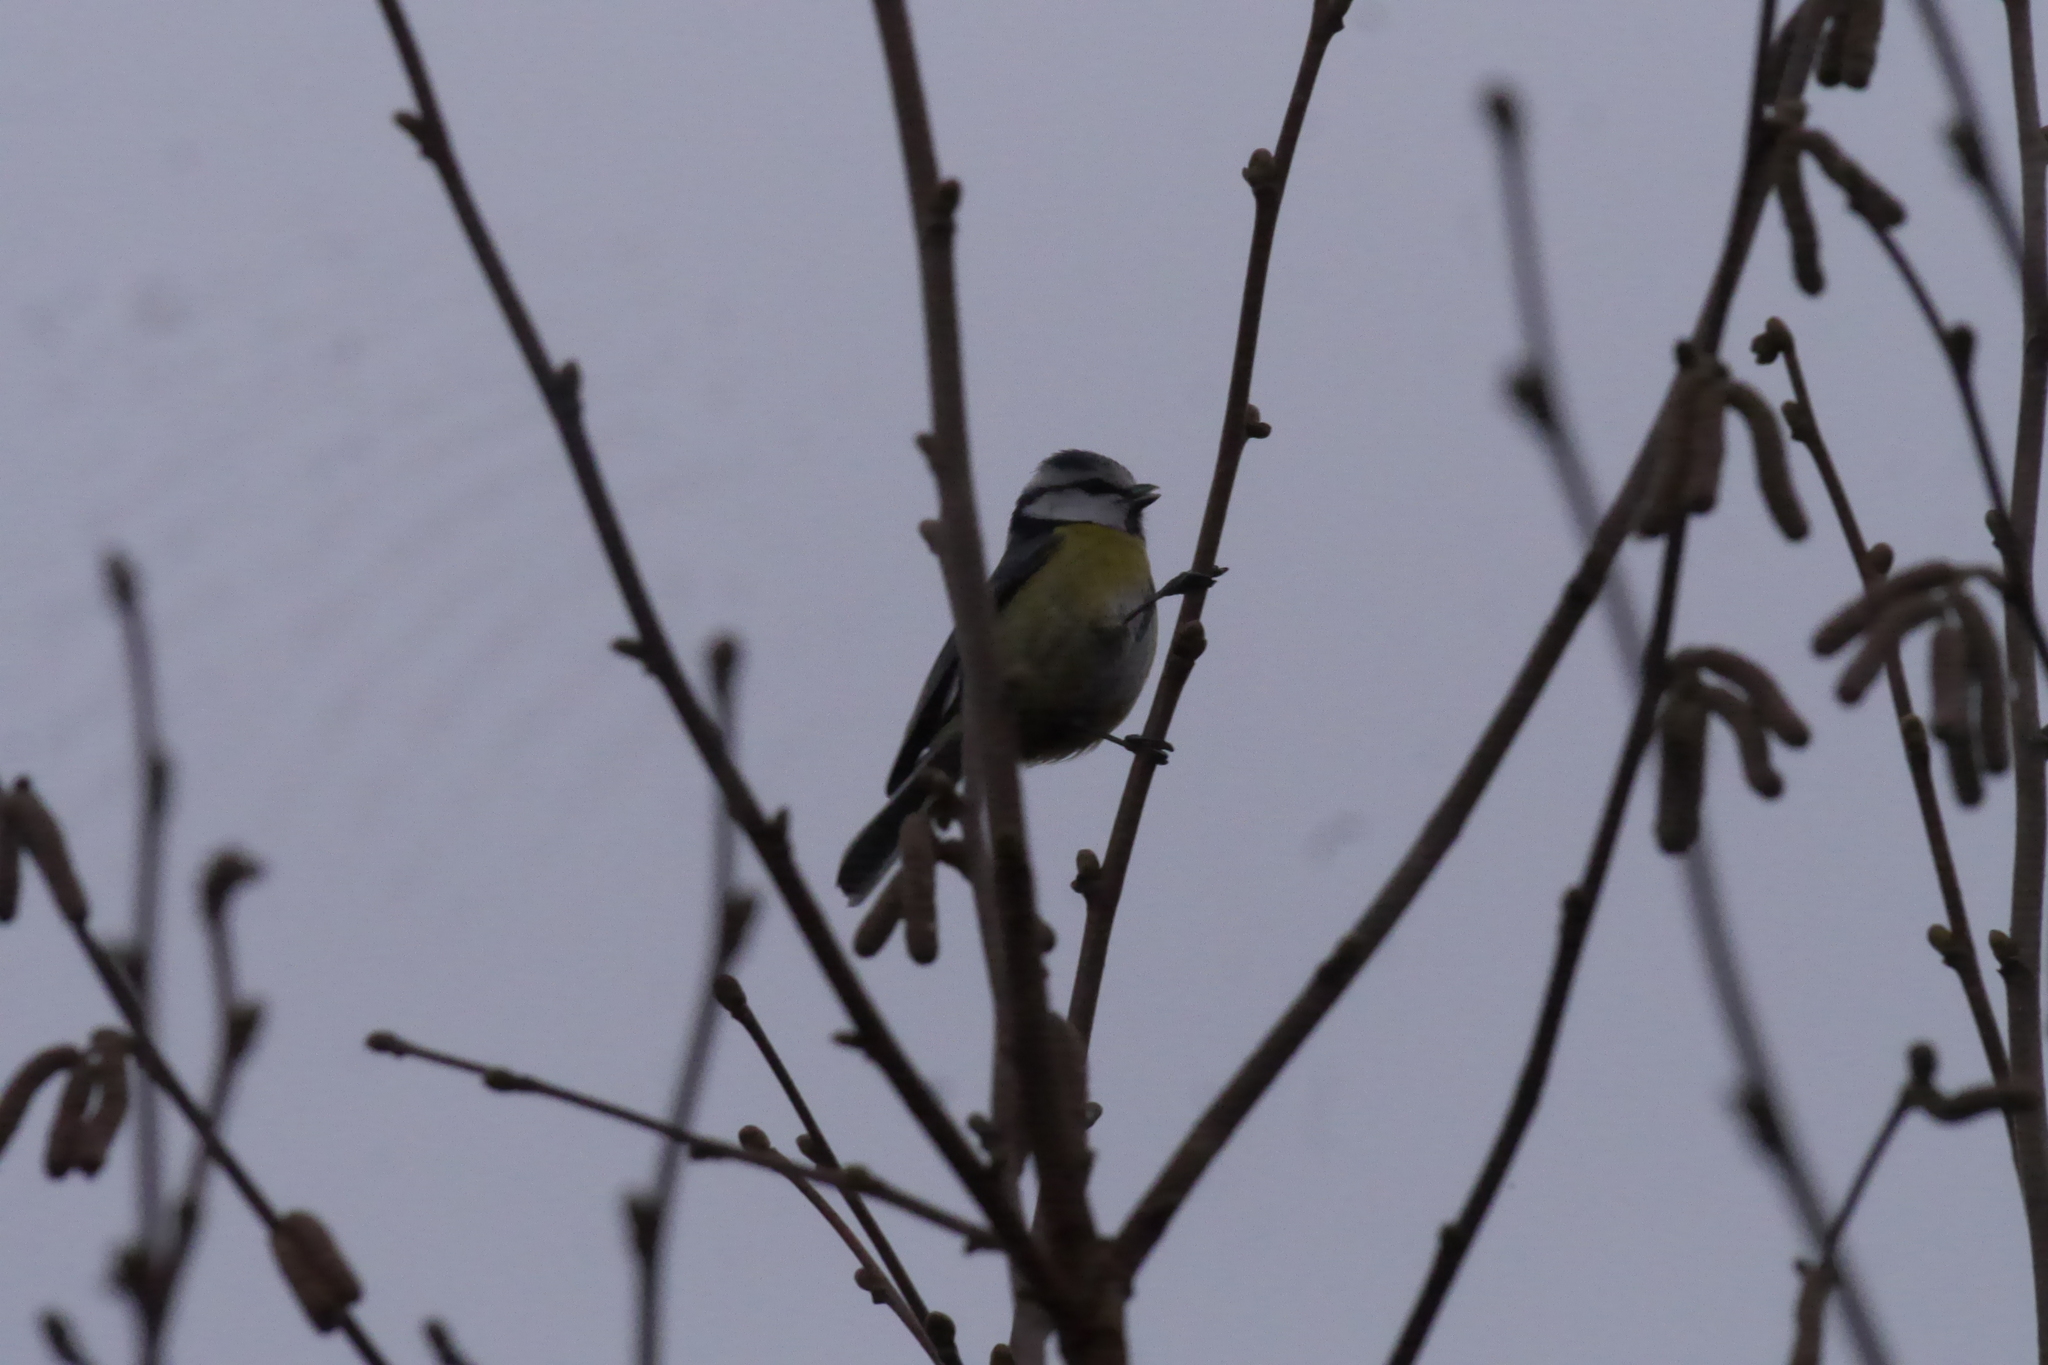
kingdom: Animalia
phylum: Chordata
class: Aves
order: Passeriformes
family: Paridae
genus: Cyanistes
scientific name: Cyanistes caeruleus
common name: Eurasian blue tit
